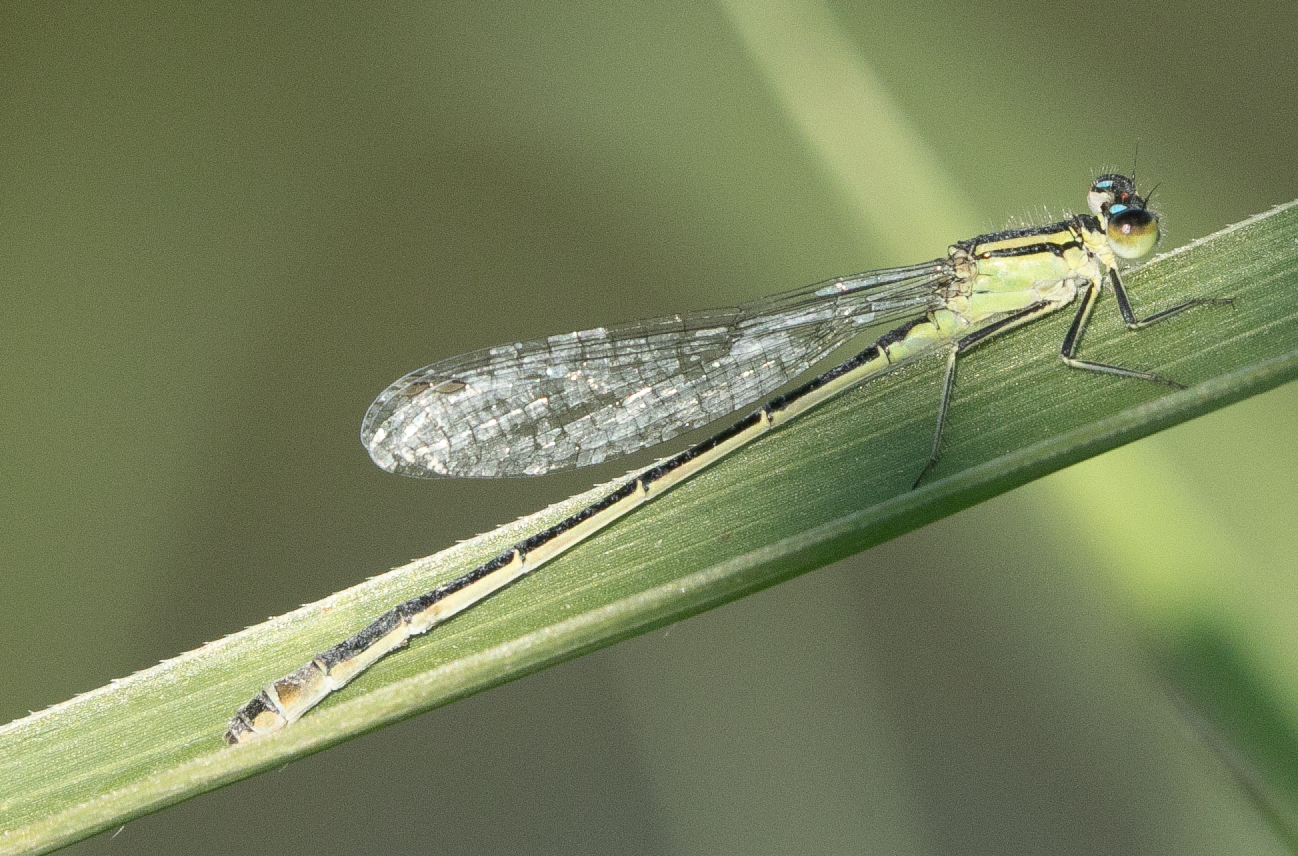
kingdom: Animalia
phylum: Arthropoda
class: Insecta
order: Odonata
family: Coenagrionidae
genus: Ischnura
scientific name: Ischnura elegans
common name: Blue-tailed damselfly
